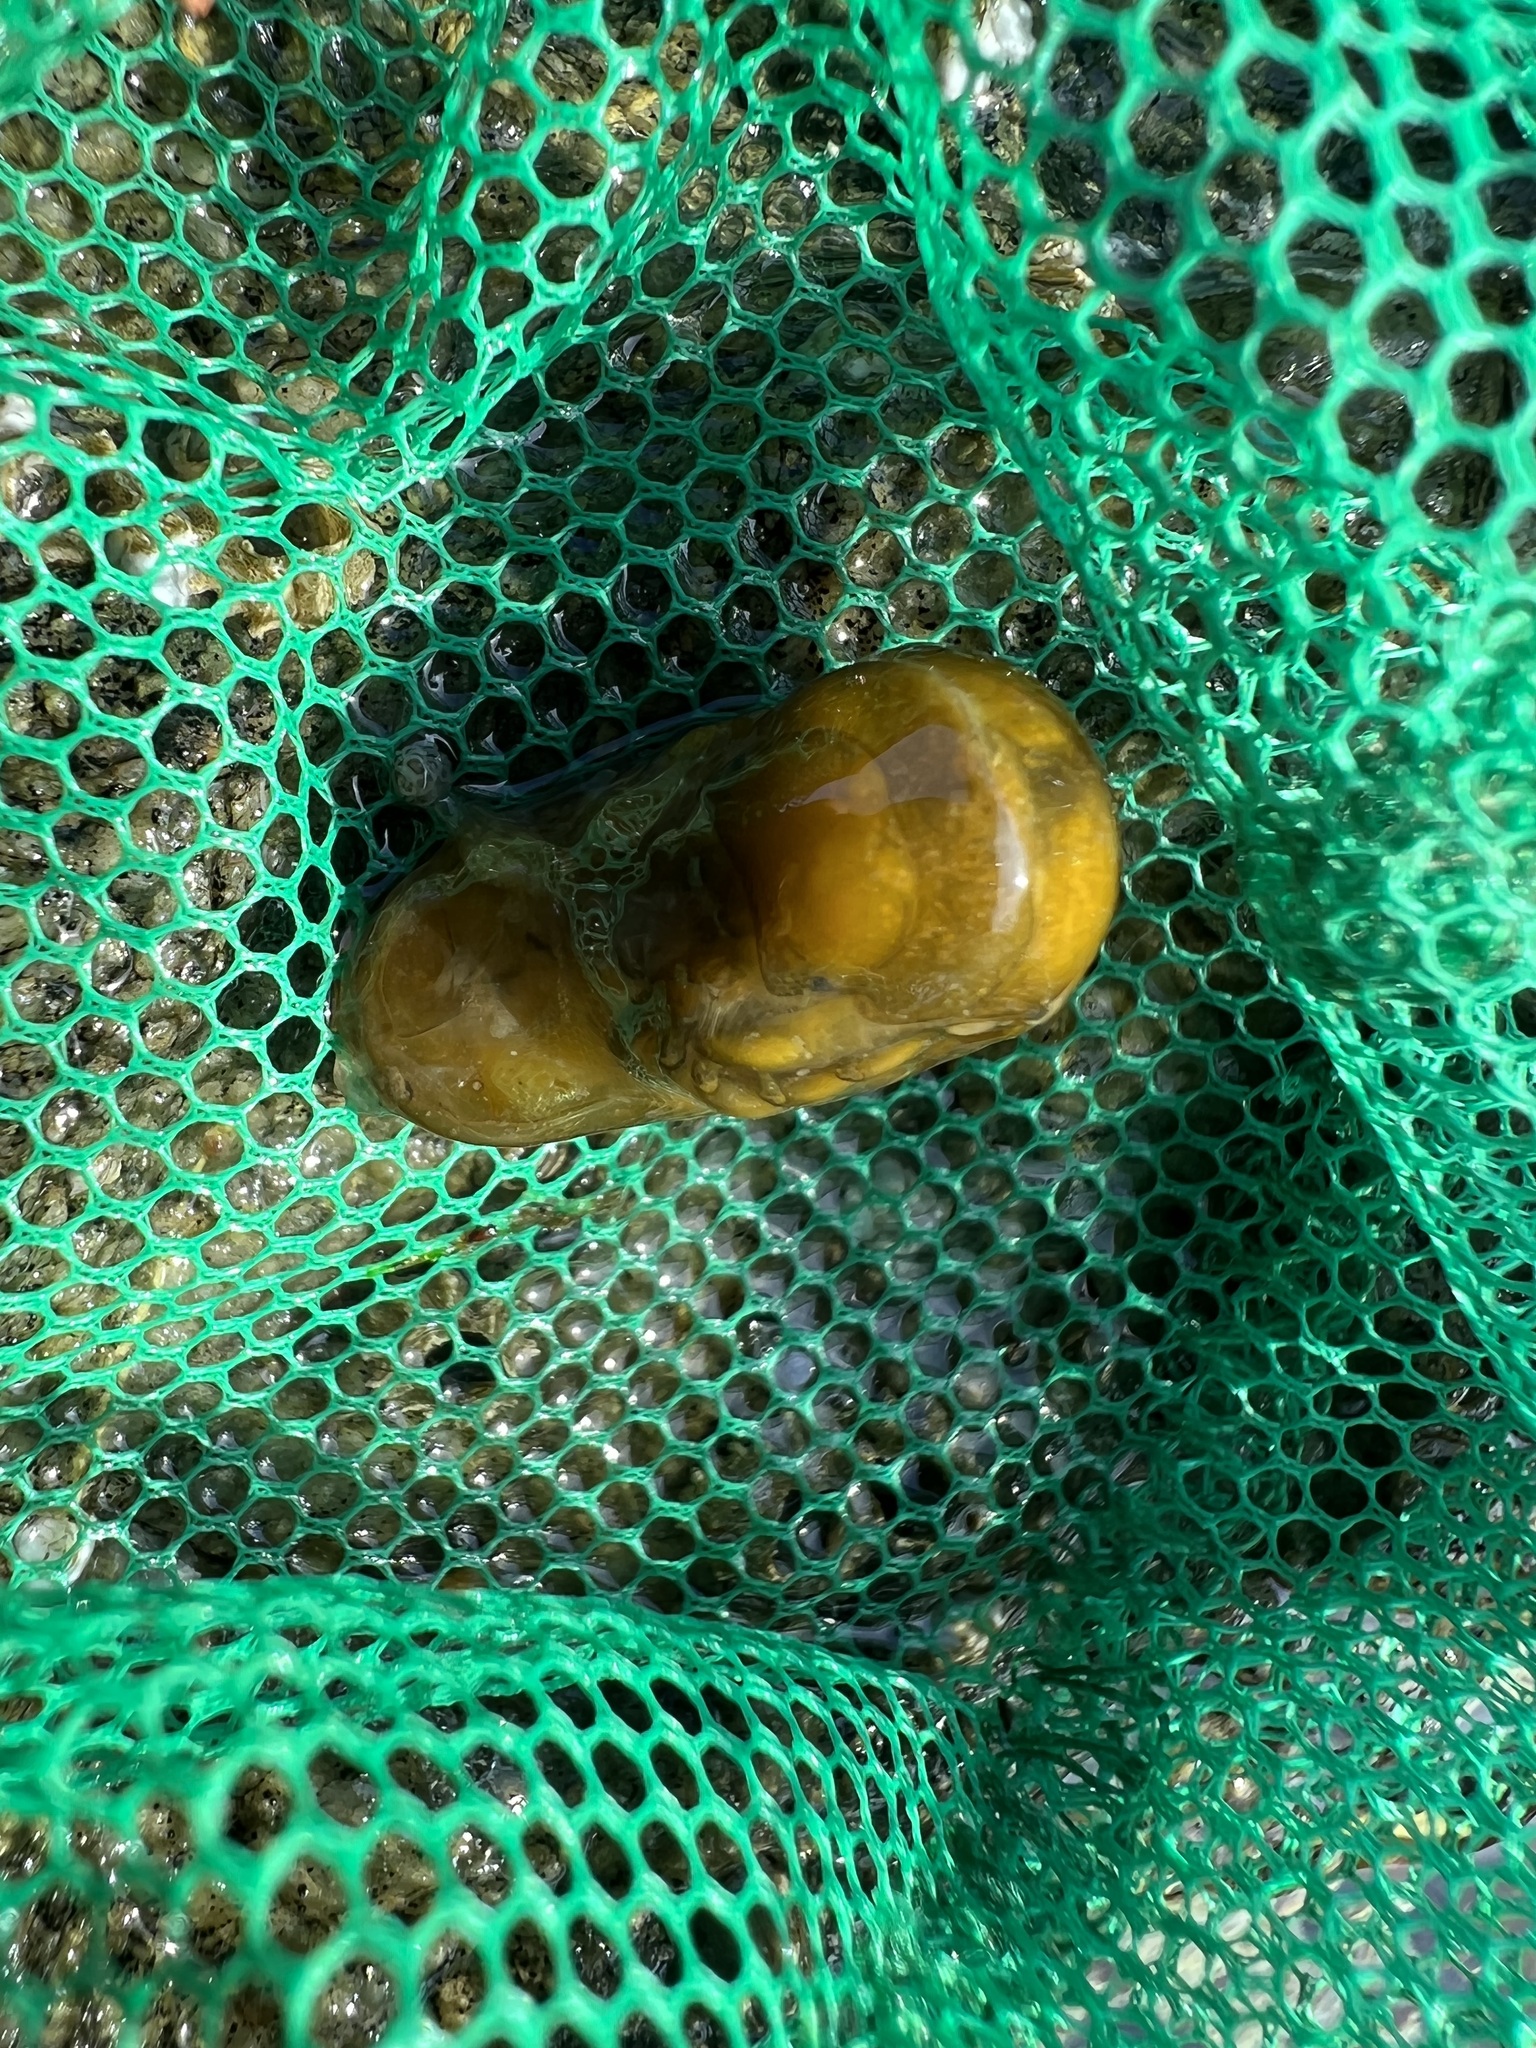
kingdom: Animalia
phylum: Arthropoda
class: Malacostraca
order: Isopoda
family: Idoteidae
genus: Pentidotea
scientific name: Pentidotea wosnesenskii
